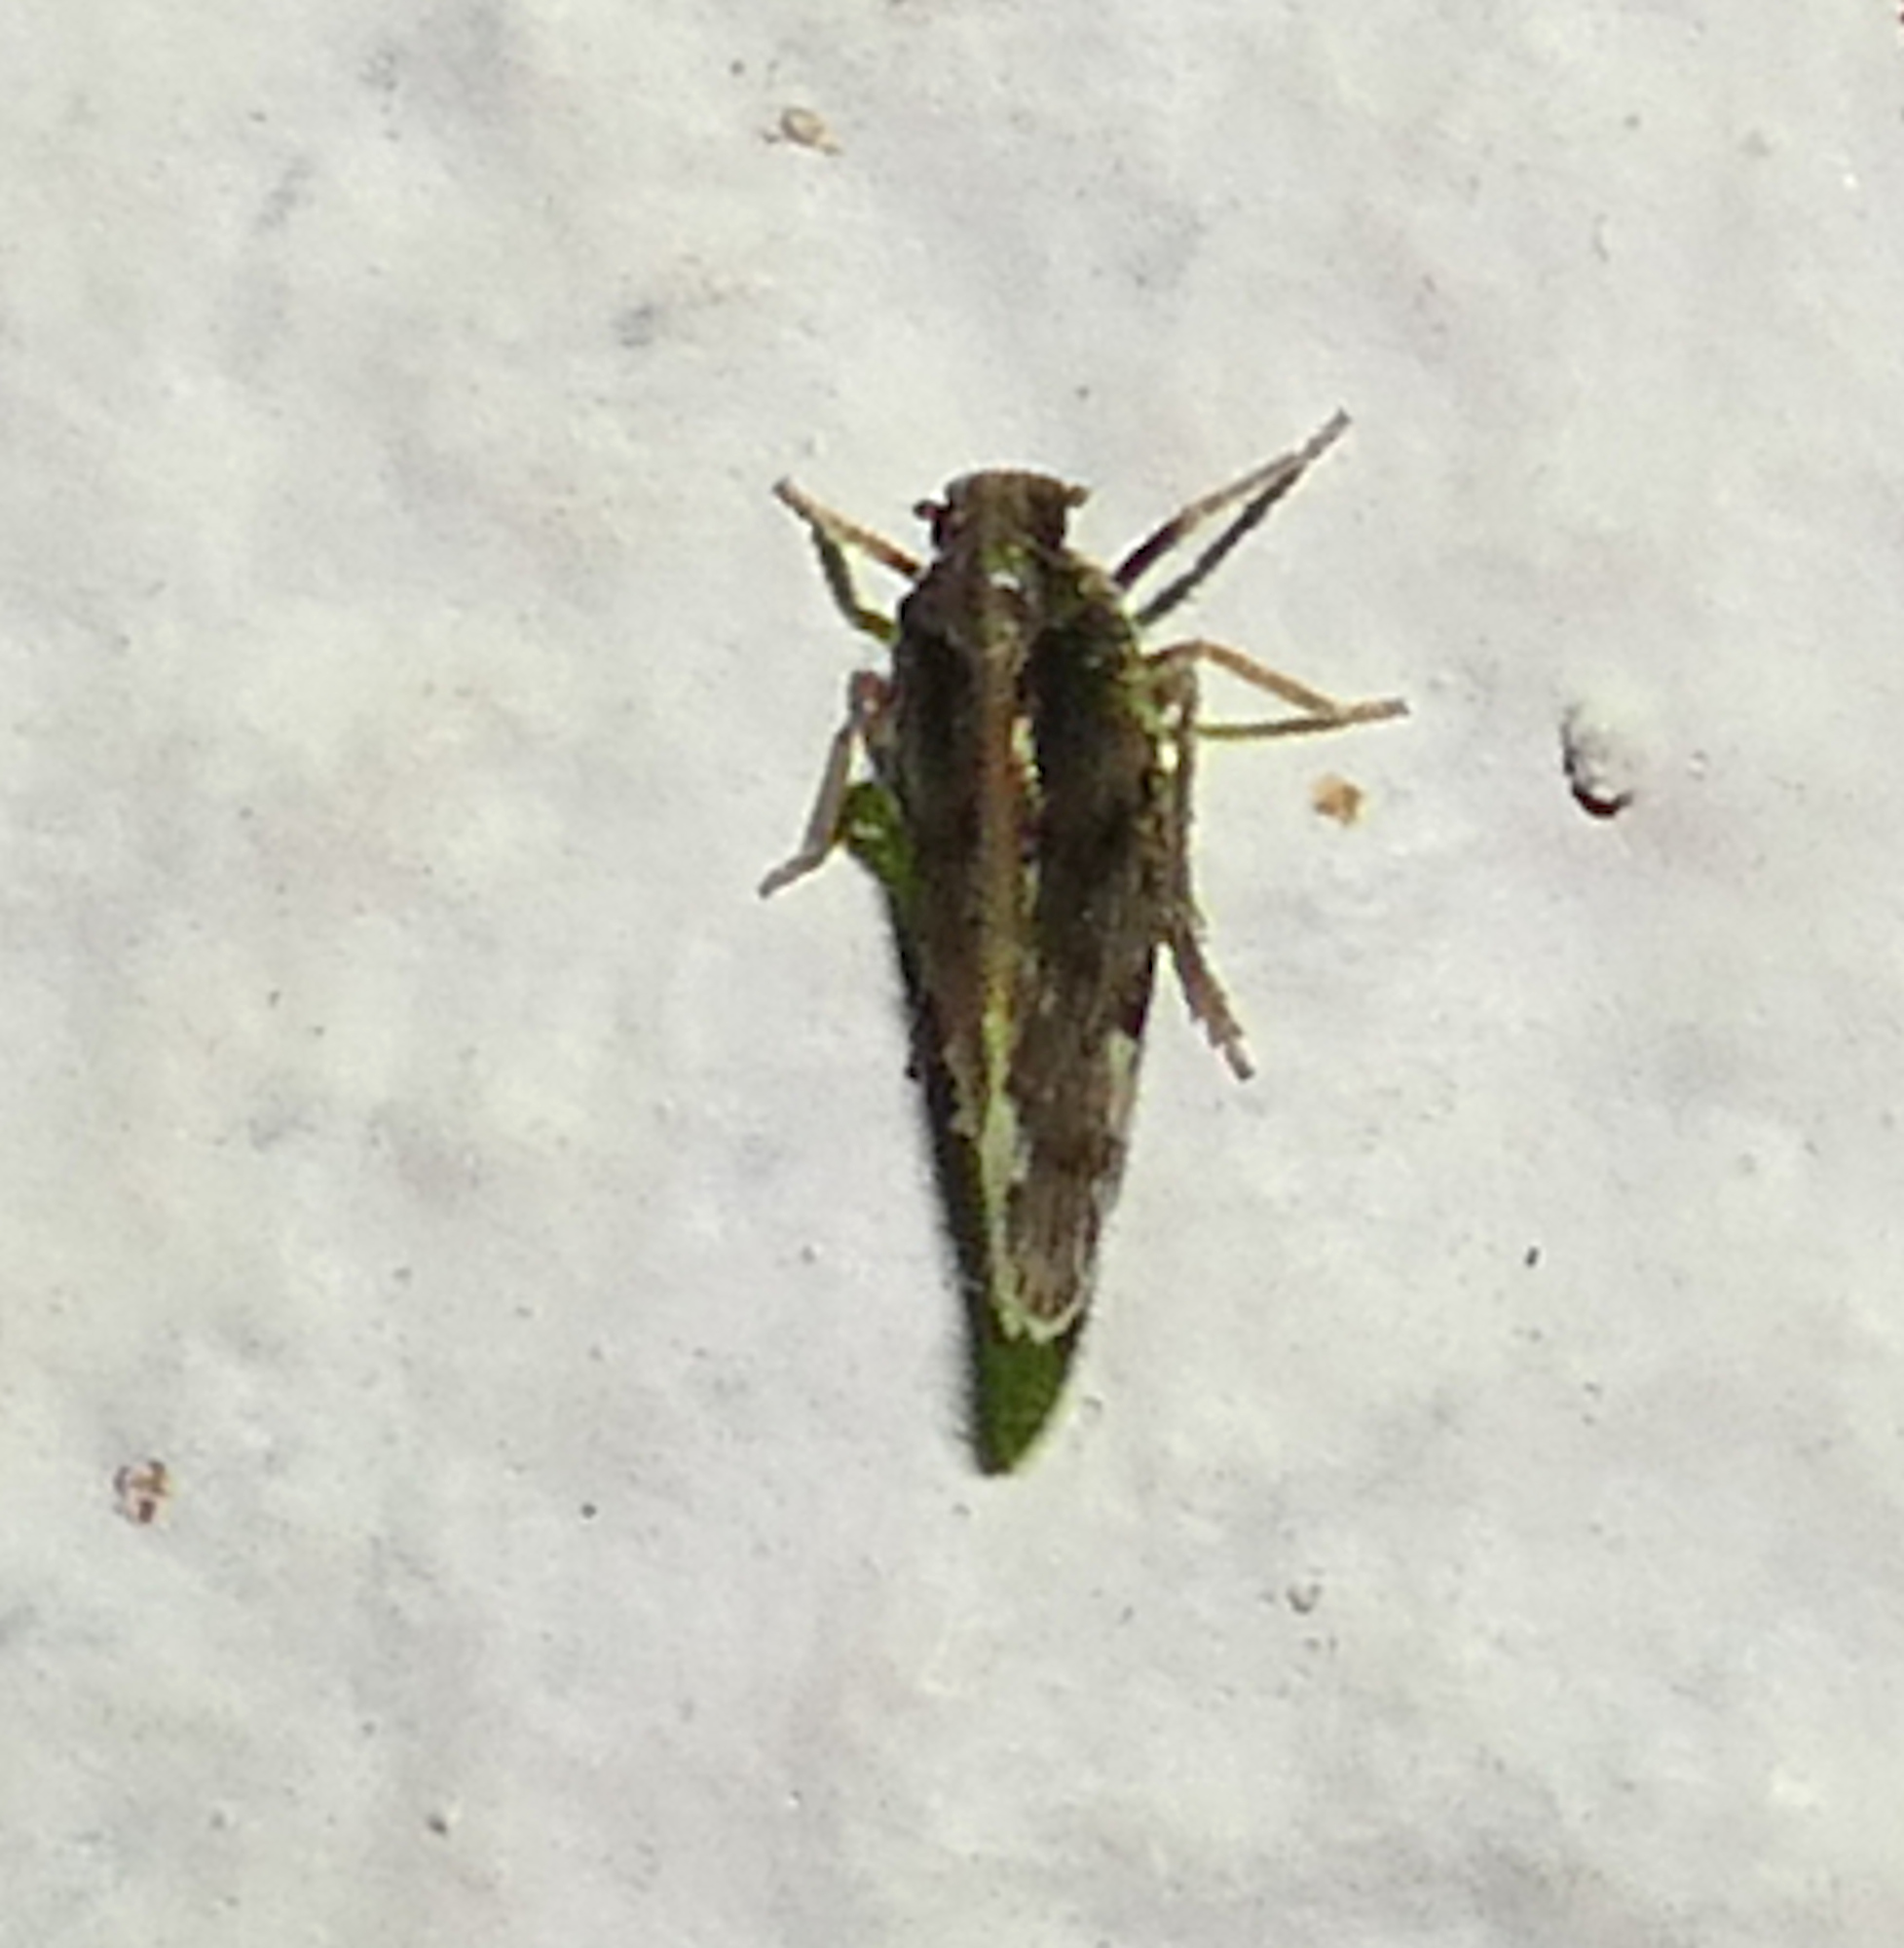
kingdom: Animalia
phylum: Arthropoda
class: Insecta
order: Hemiptera
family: Cixiidae
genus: Pintalia
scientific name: Pintalia vibex
